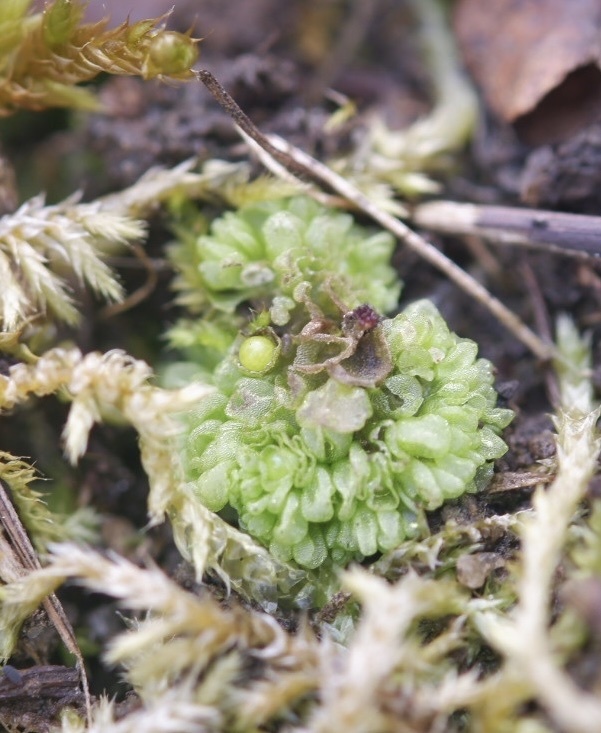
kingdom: Plantae
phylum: Marchantiophyta
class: Marchantiopsida
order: Sphaerocarpales
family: Sphaerocarpaceae
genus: Sphaerocarpos
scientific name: Sphaerocarpos texanus
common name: Texas balloonwort
